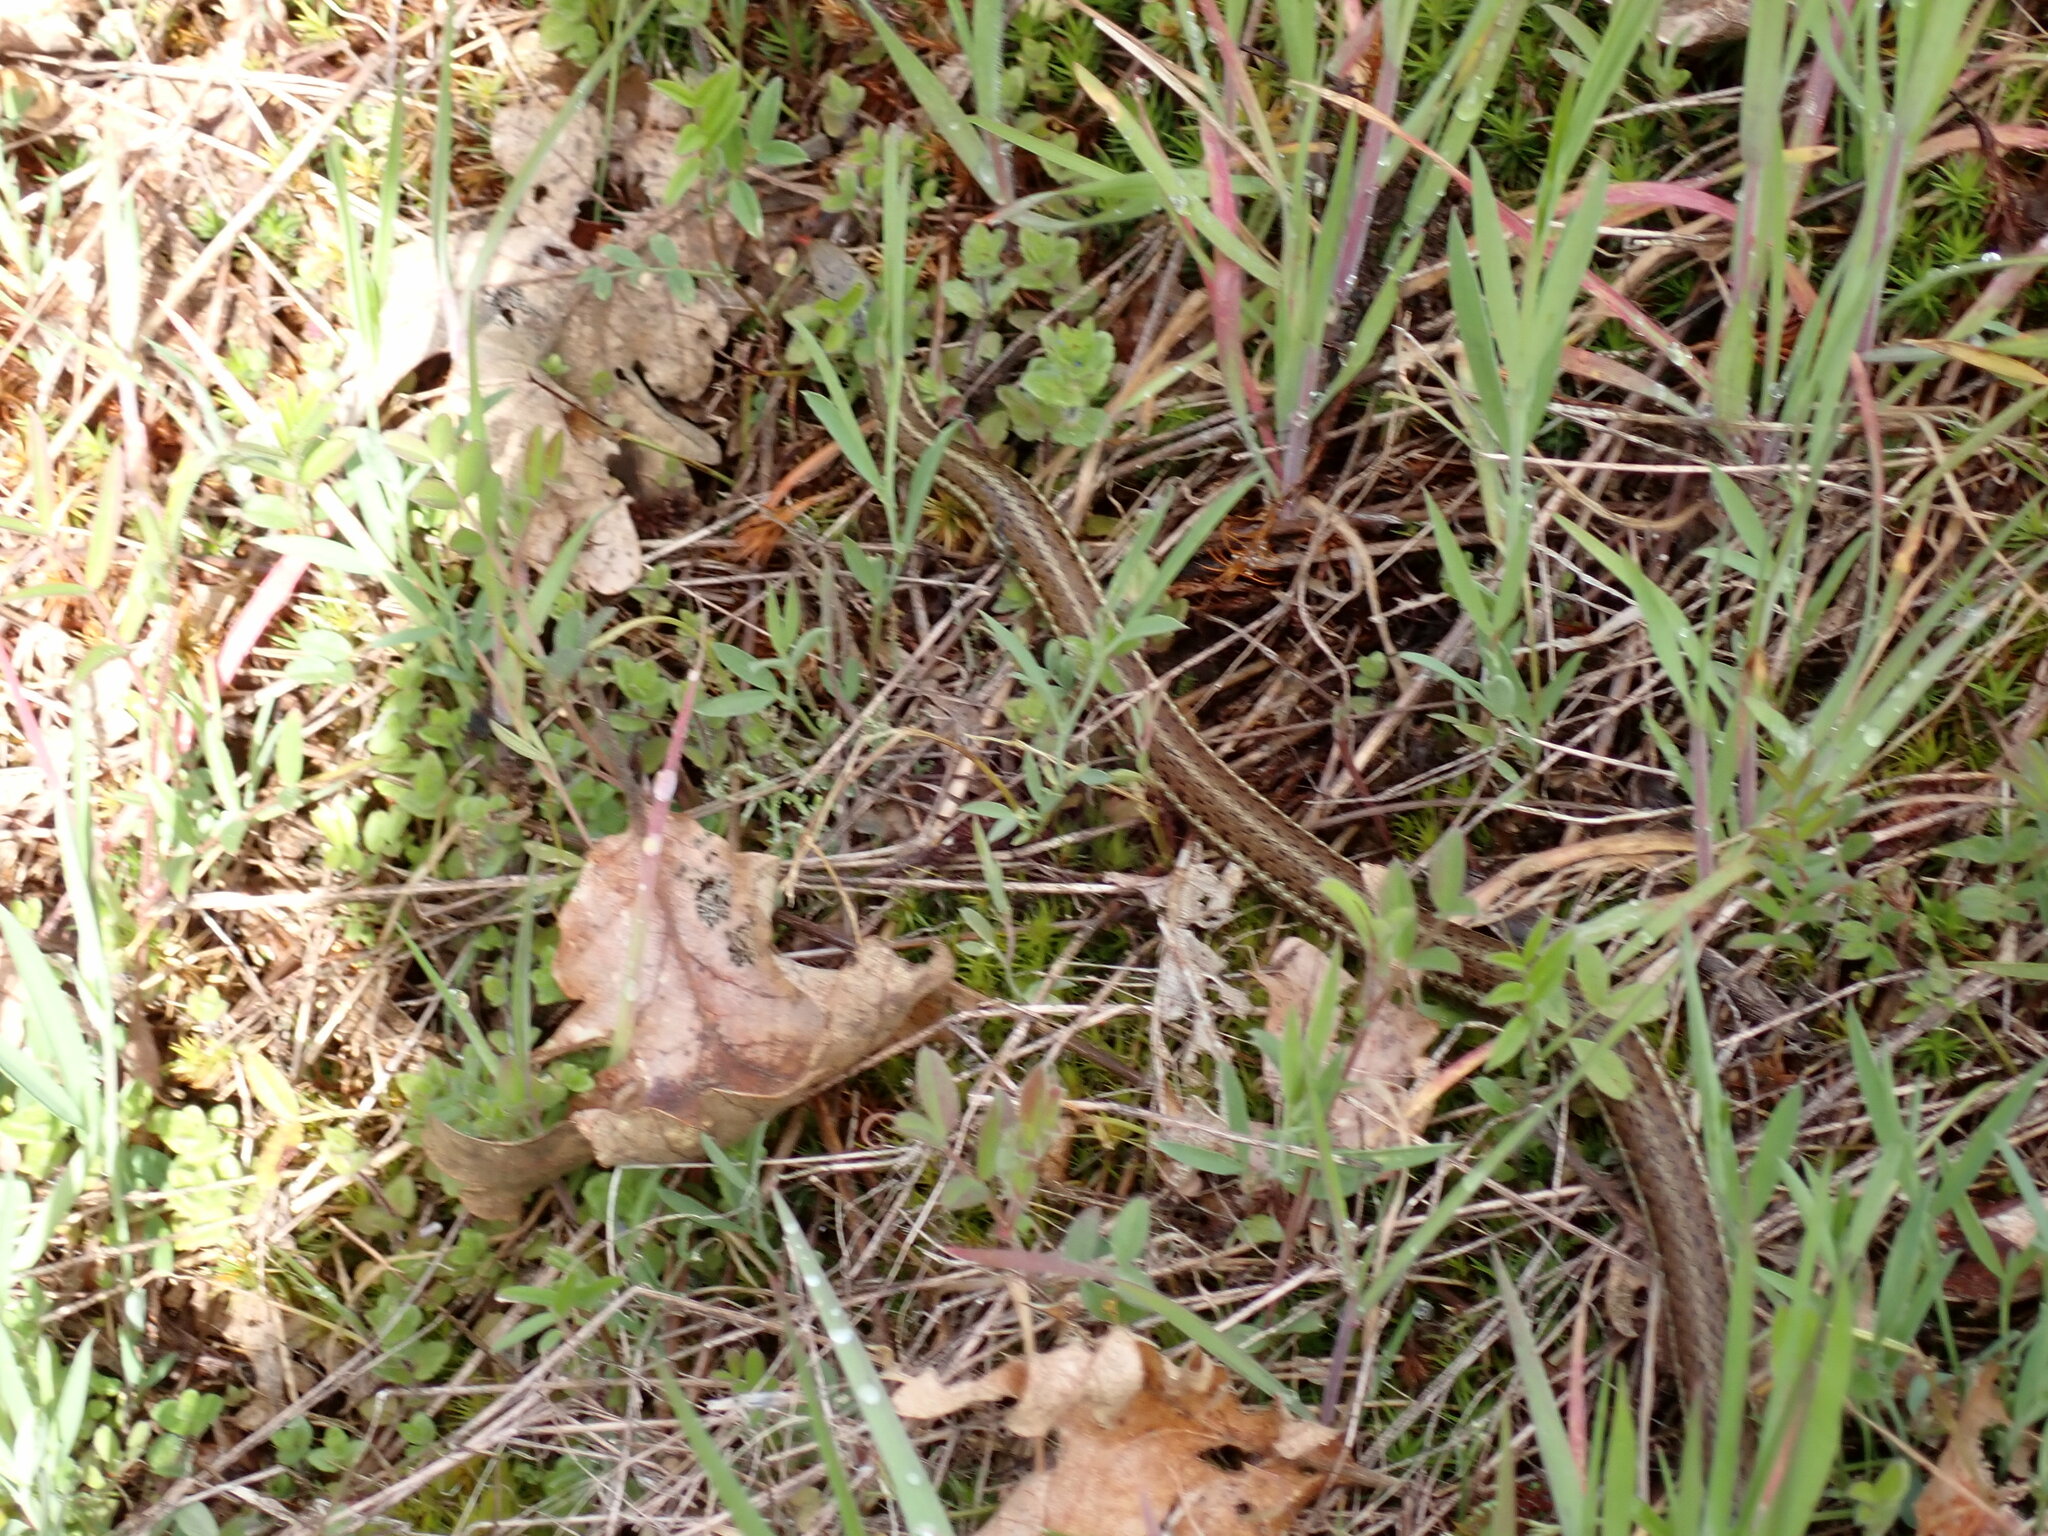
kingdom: Animalia
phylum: Chordata
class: Squamata
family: Colubridae
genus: Thamnophis
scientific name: Thamnophis ordinoides
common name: Northwestern garter snake
